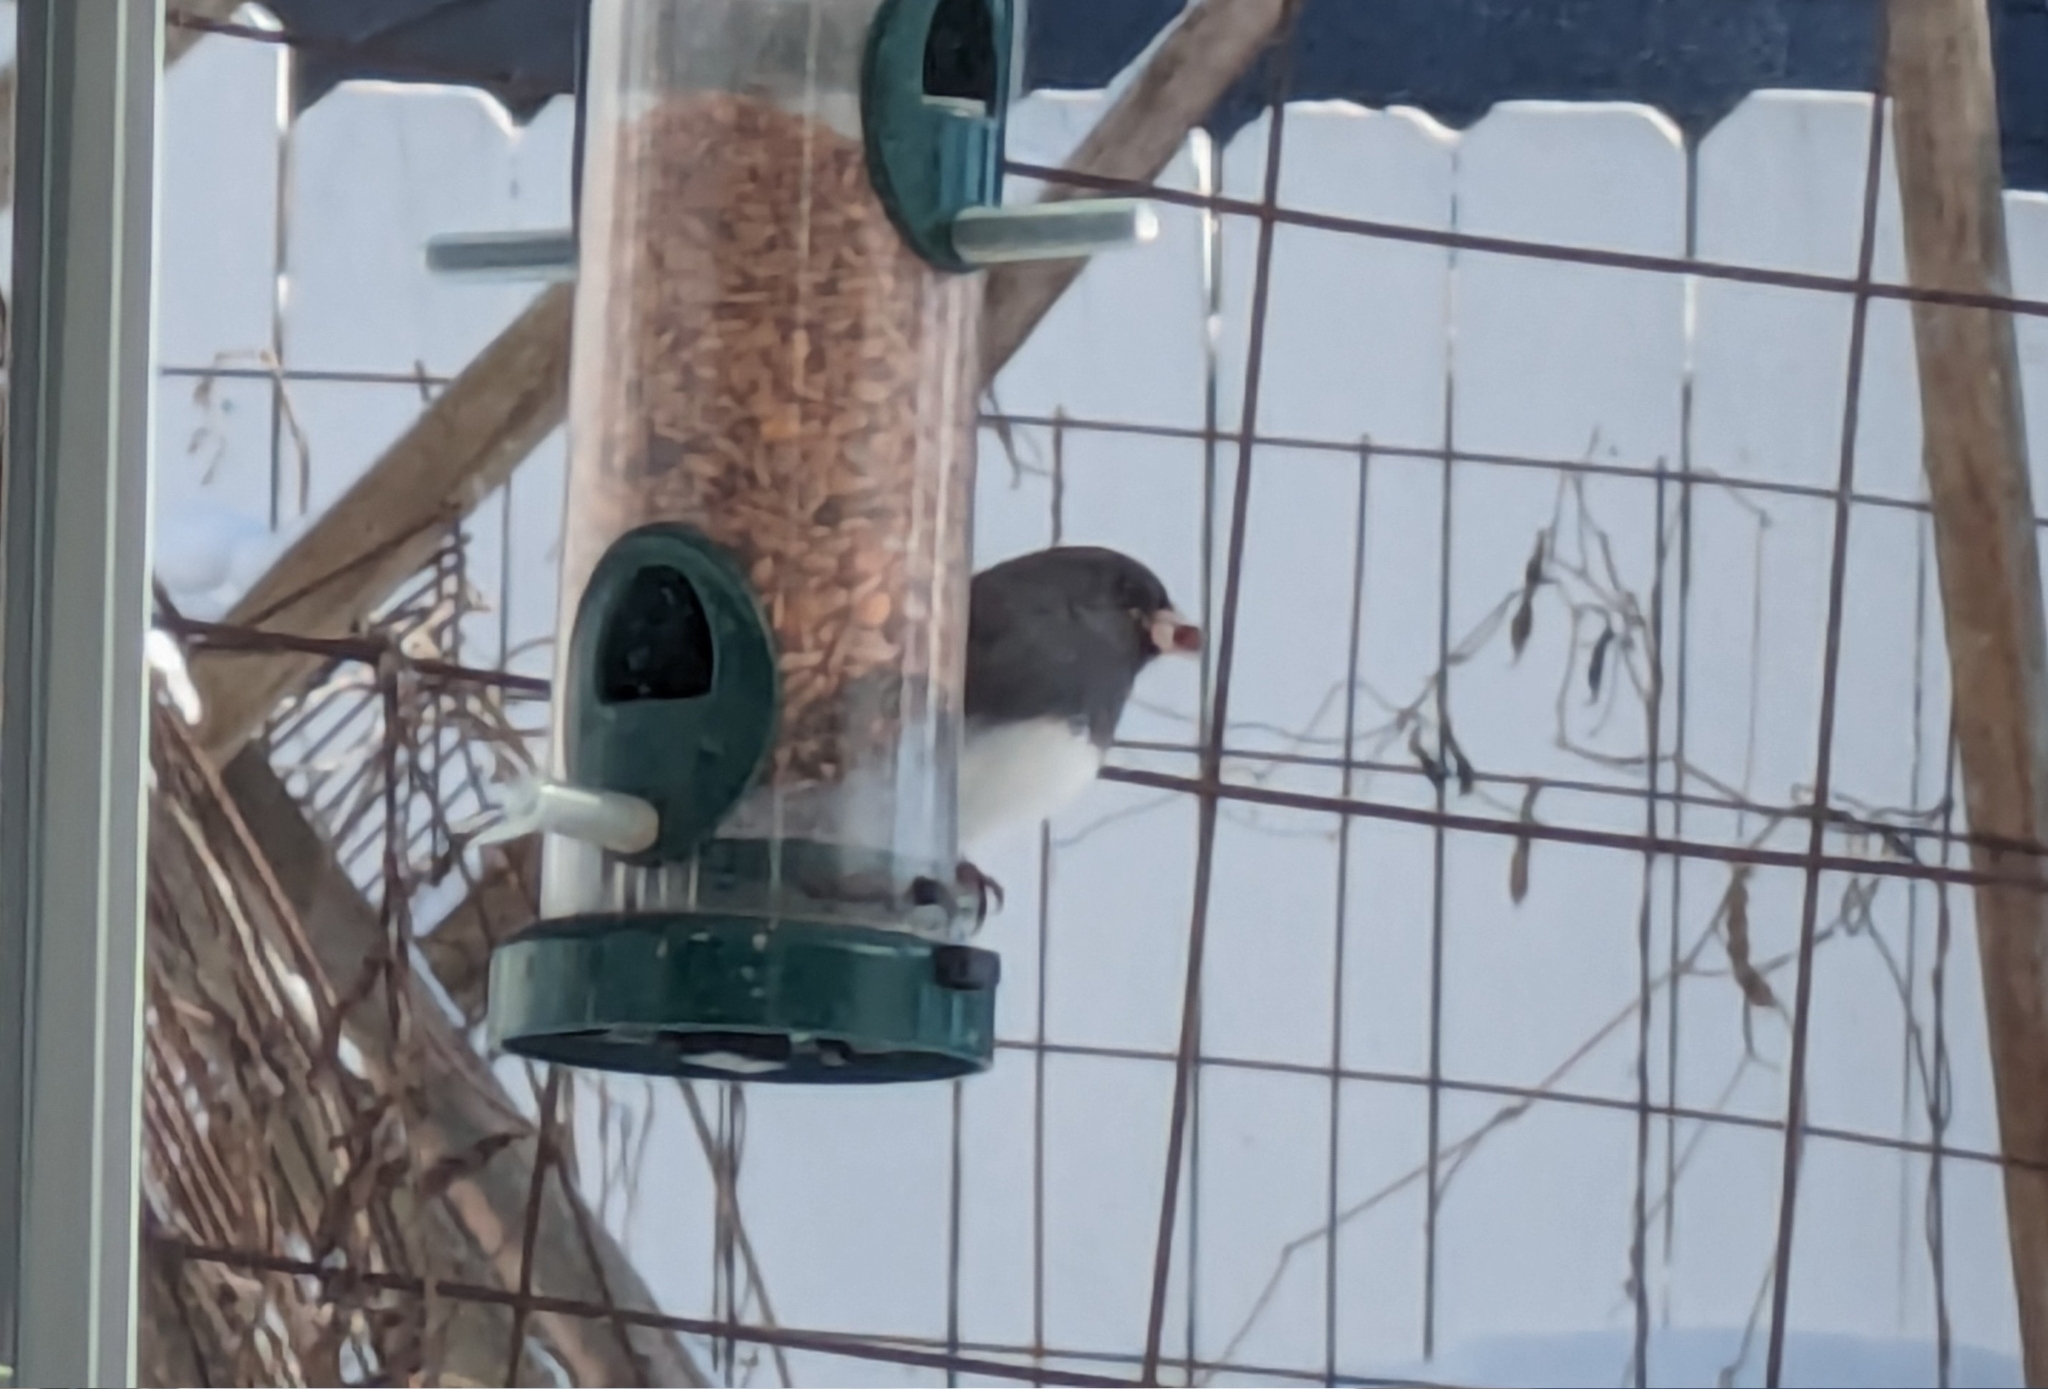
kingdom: Animalia
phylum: Chordata
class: Aves
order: Passeriformes
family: Passerellidae
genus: Junco
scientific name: Junco hyemalis
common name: Dark-eyed junco
